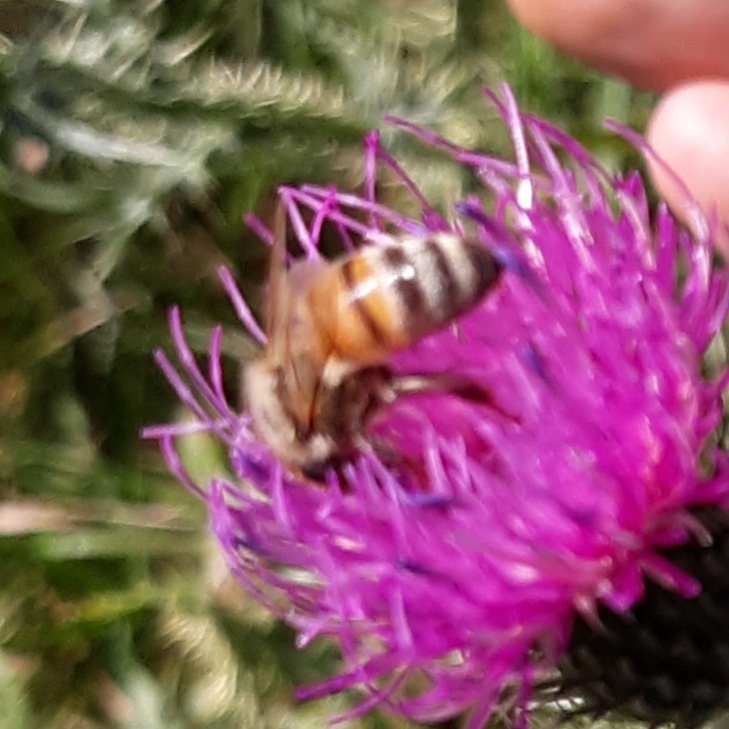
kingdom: Animalia
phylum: Arthropoda
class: Insecta
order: Hymenoptera
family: Apidae
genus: Apis
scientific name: Apis mellifera
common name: Honey bee
